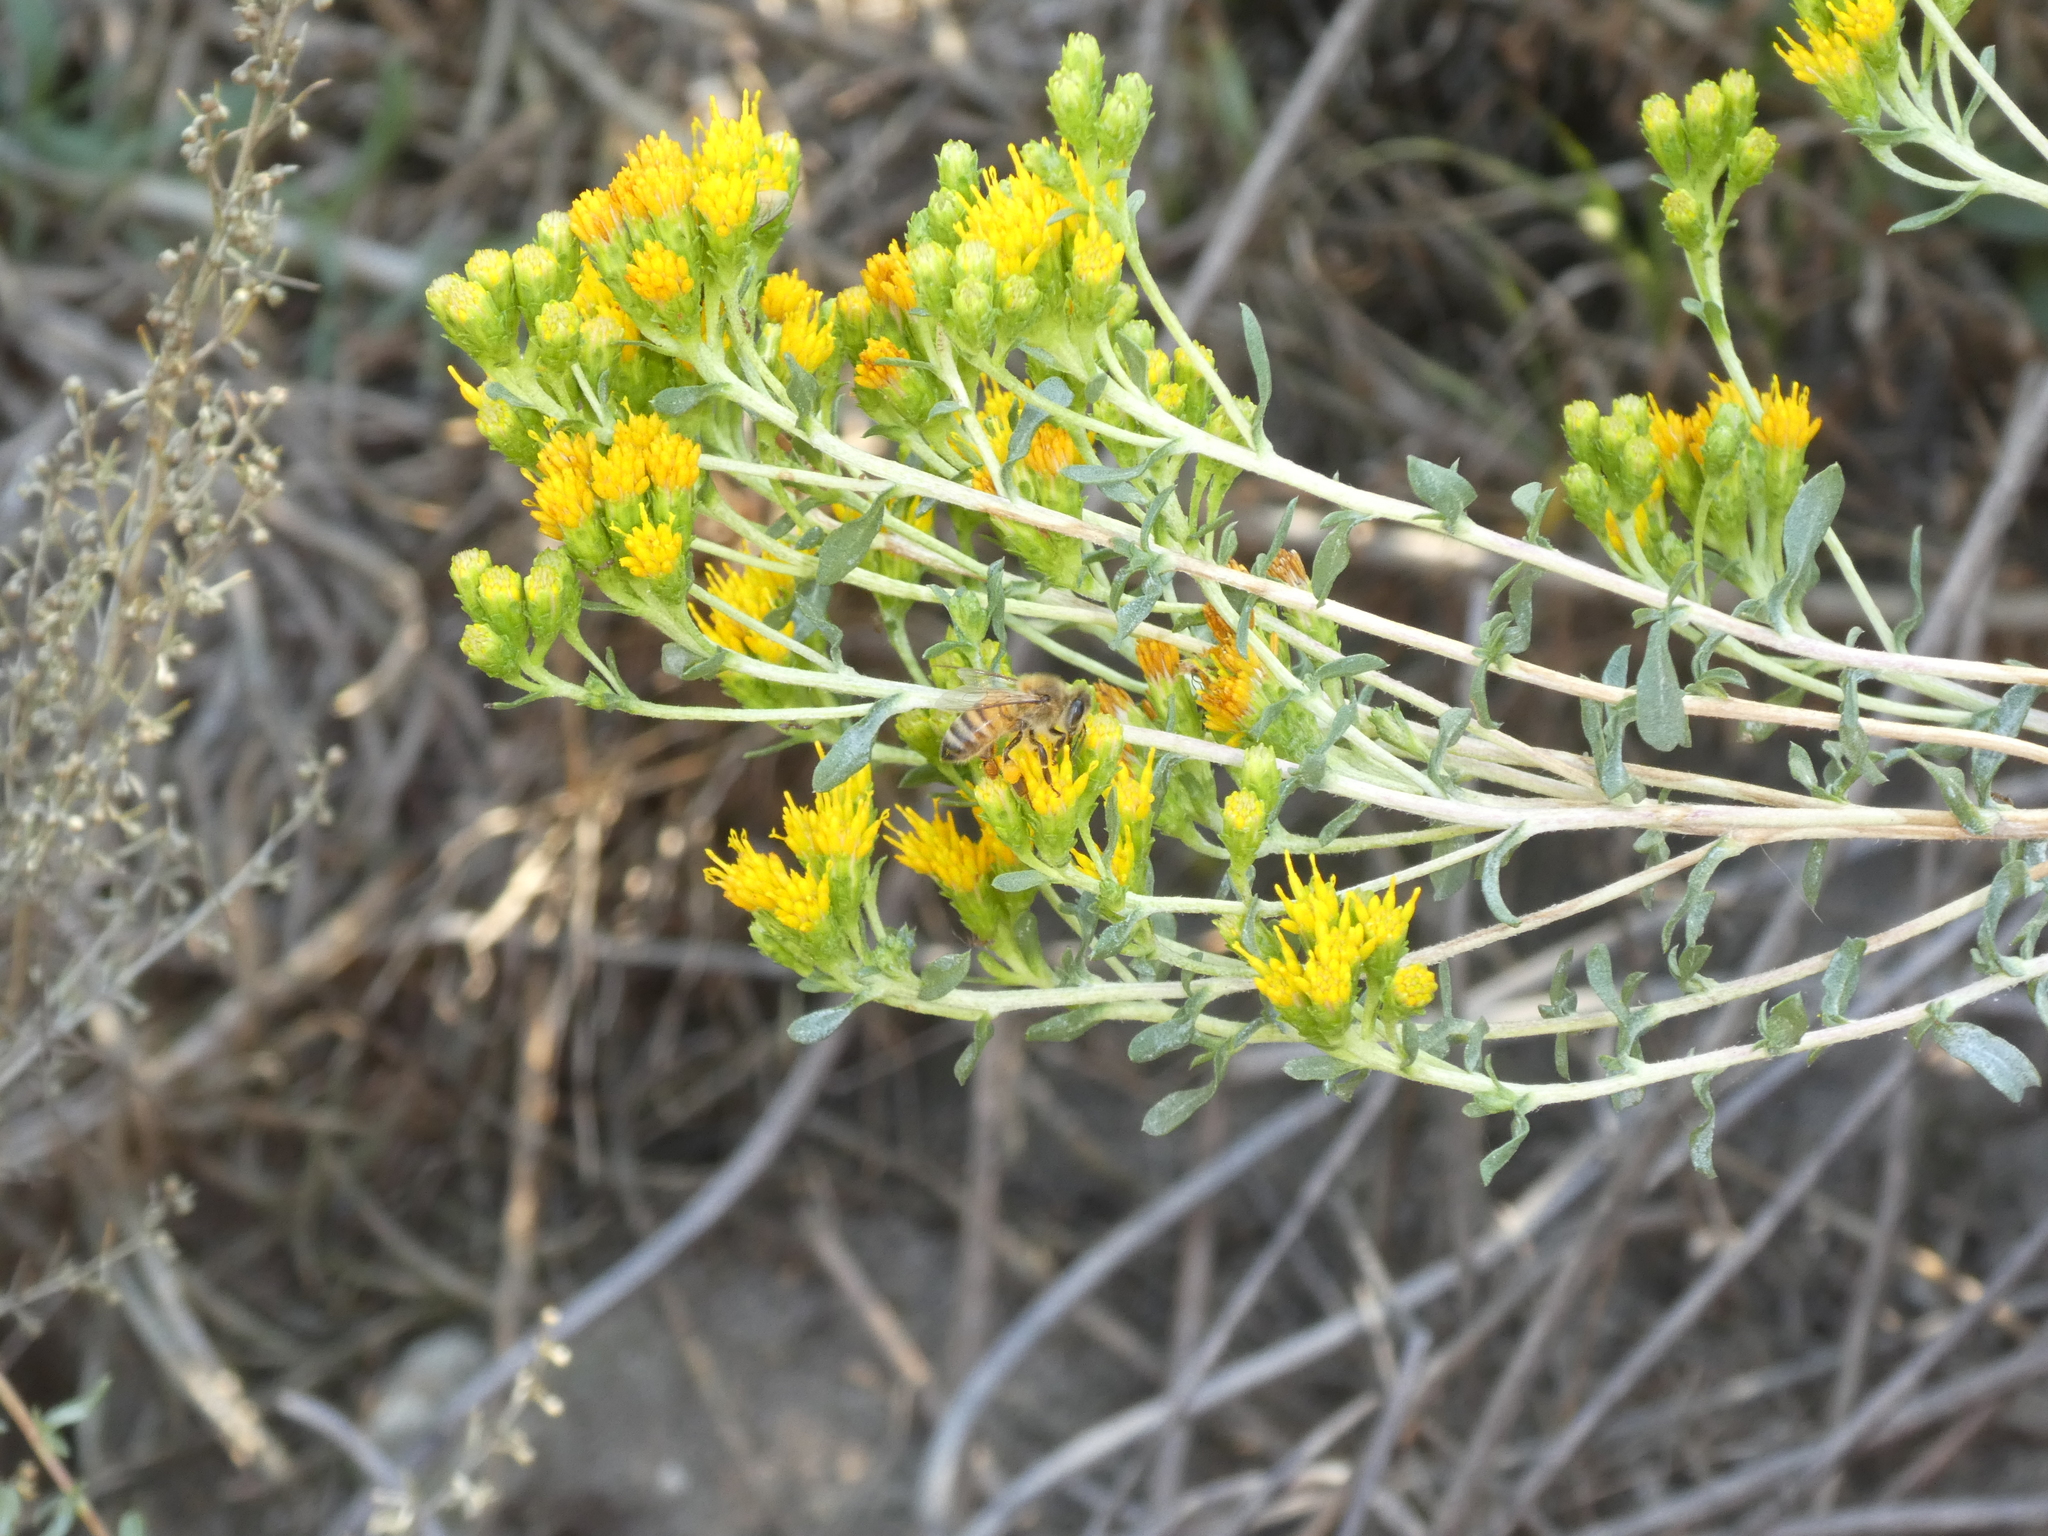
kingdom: Animalia
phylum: Arthropoda
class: Insecta
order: Hymenoptera
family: Apidae
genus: Apis
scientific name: Apis mellifera
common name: Honey bee
